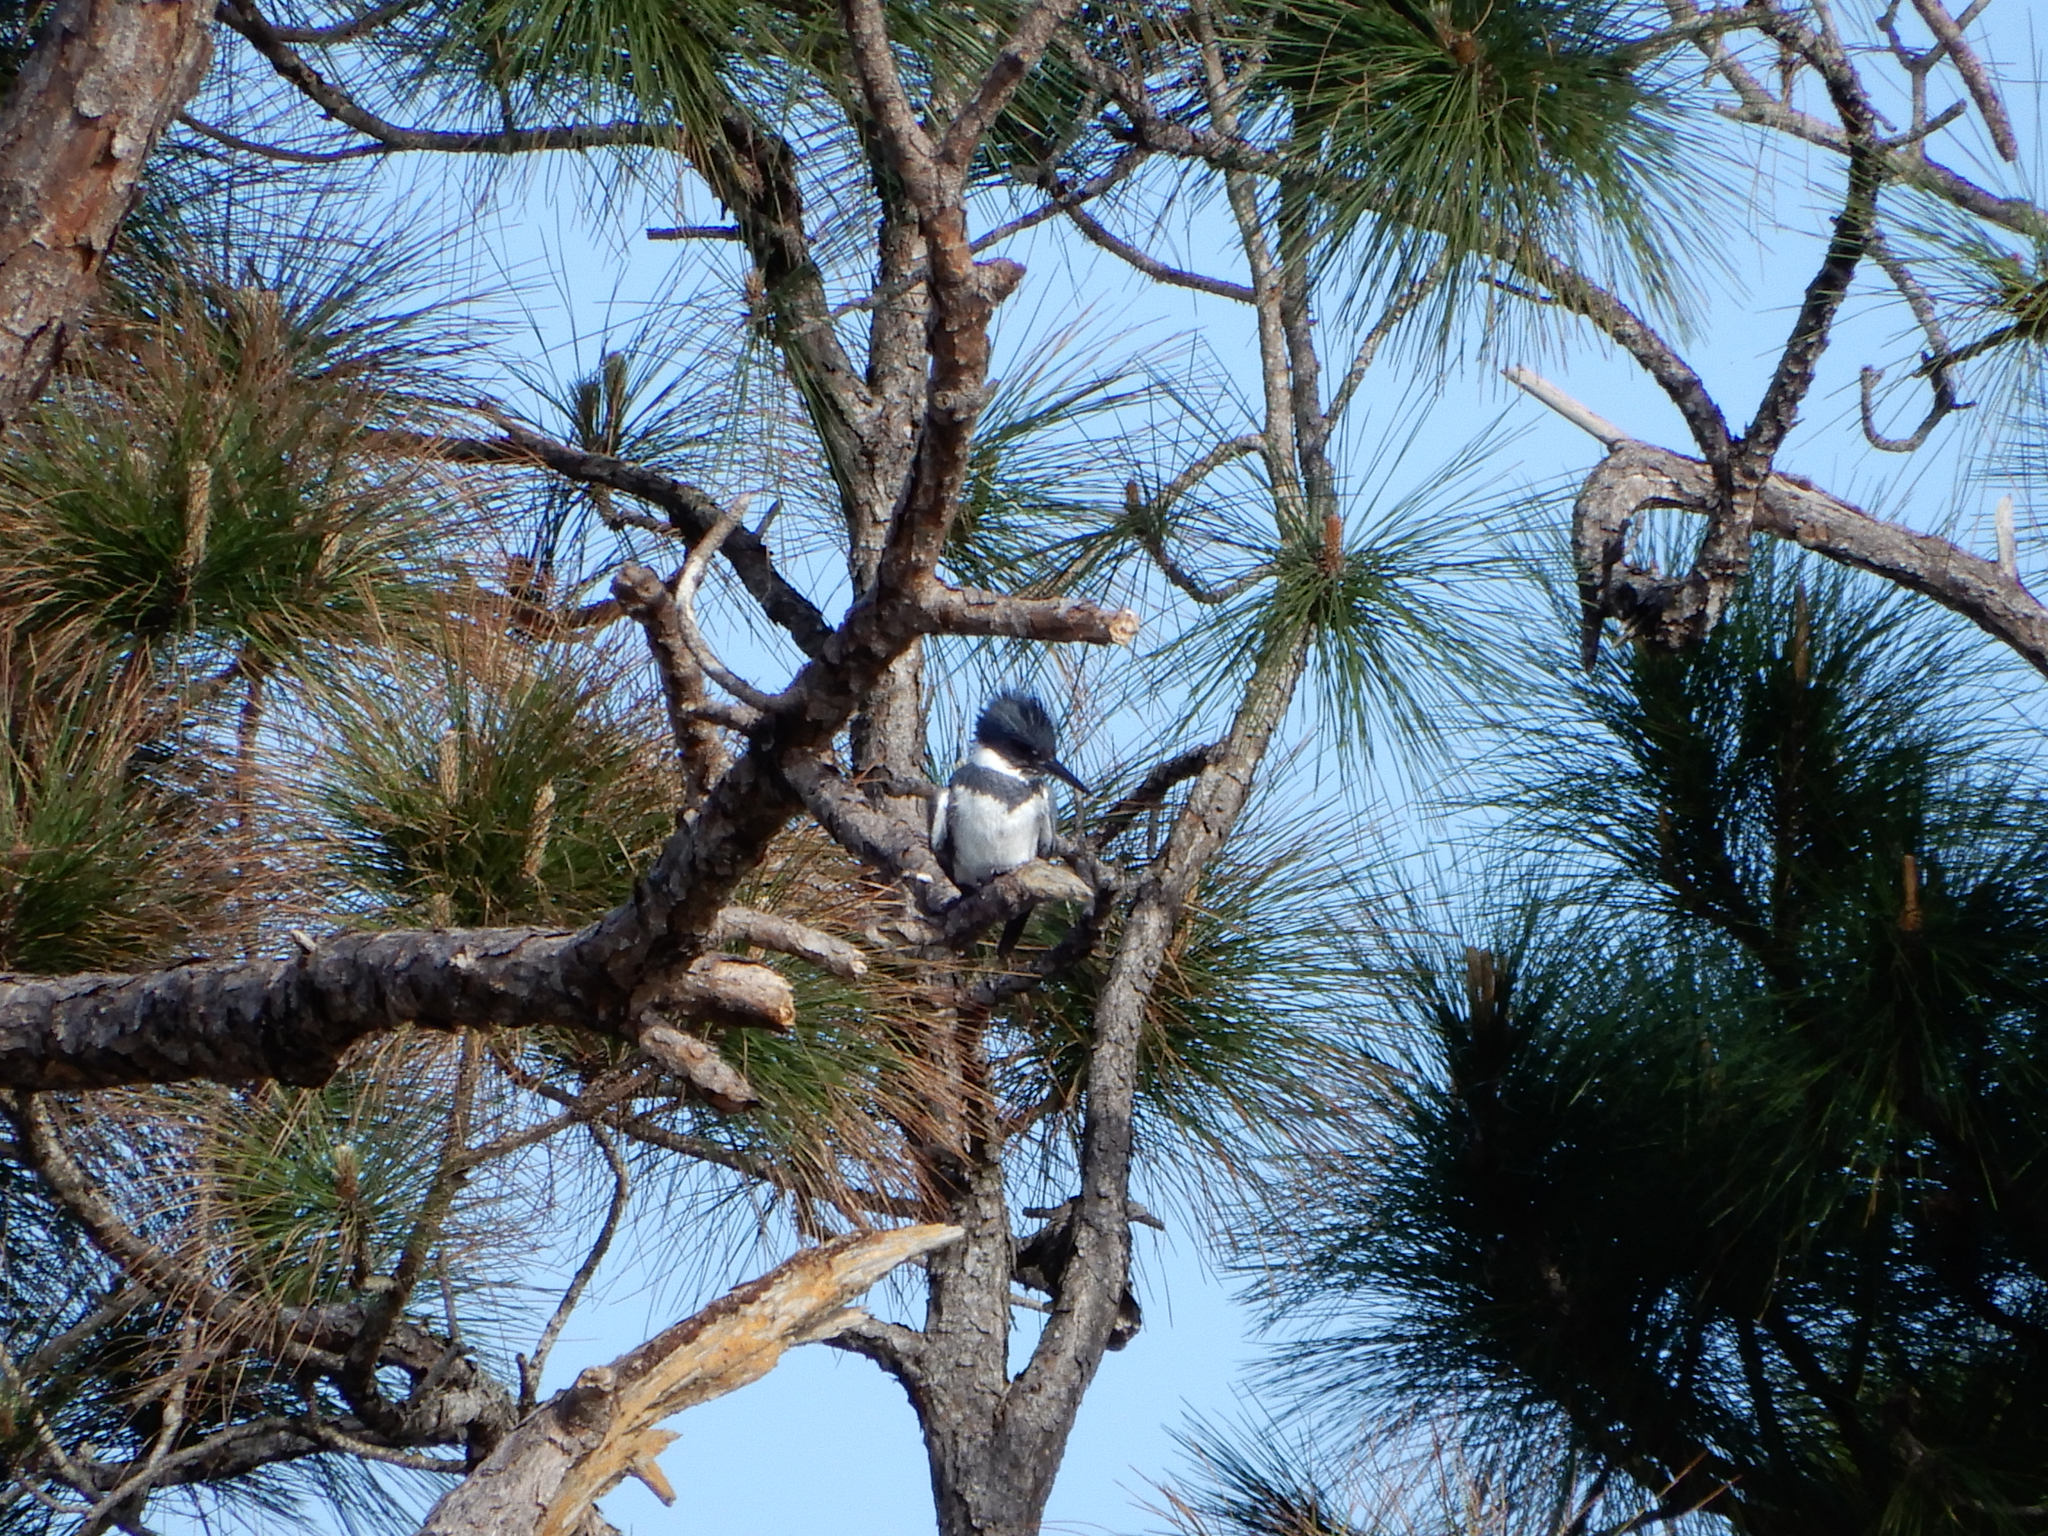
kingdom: Animalia
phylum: Chordata
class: Aves
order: Coraciiformes
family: Alcedinidae
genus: Megaceryle
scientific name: Megaceryle alcyon
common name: Belted kingfisher
